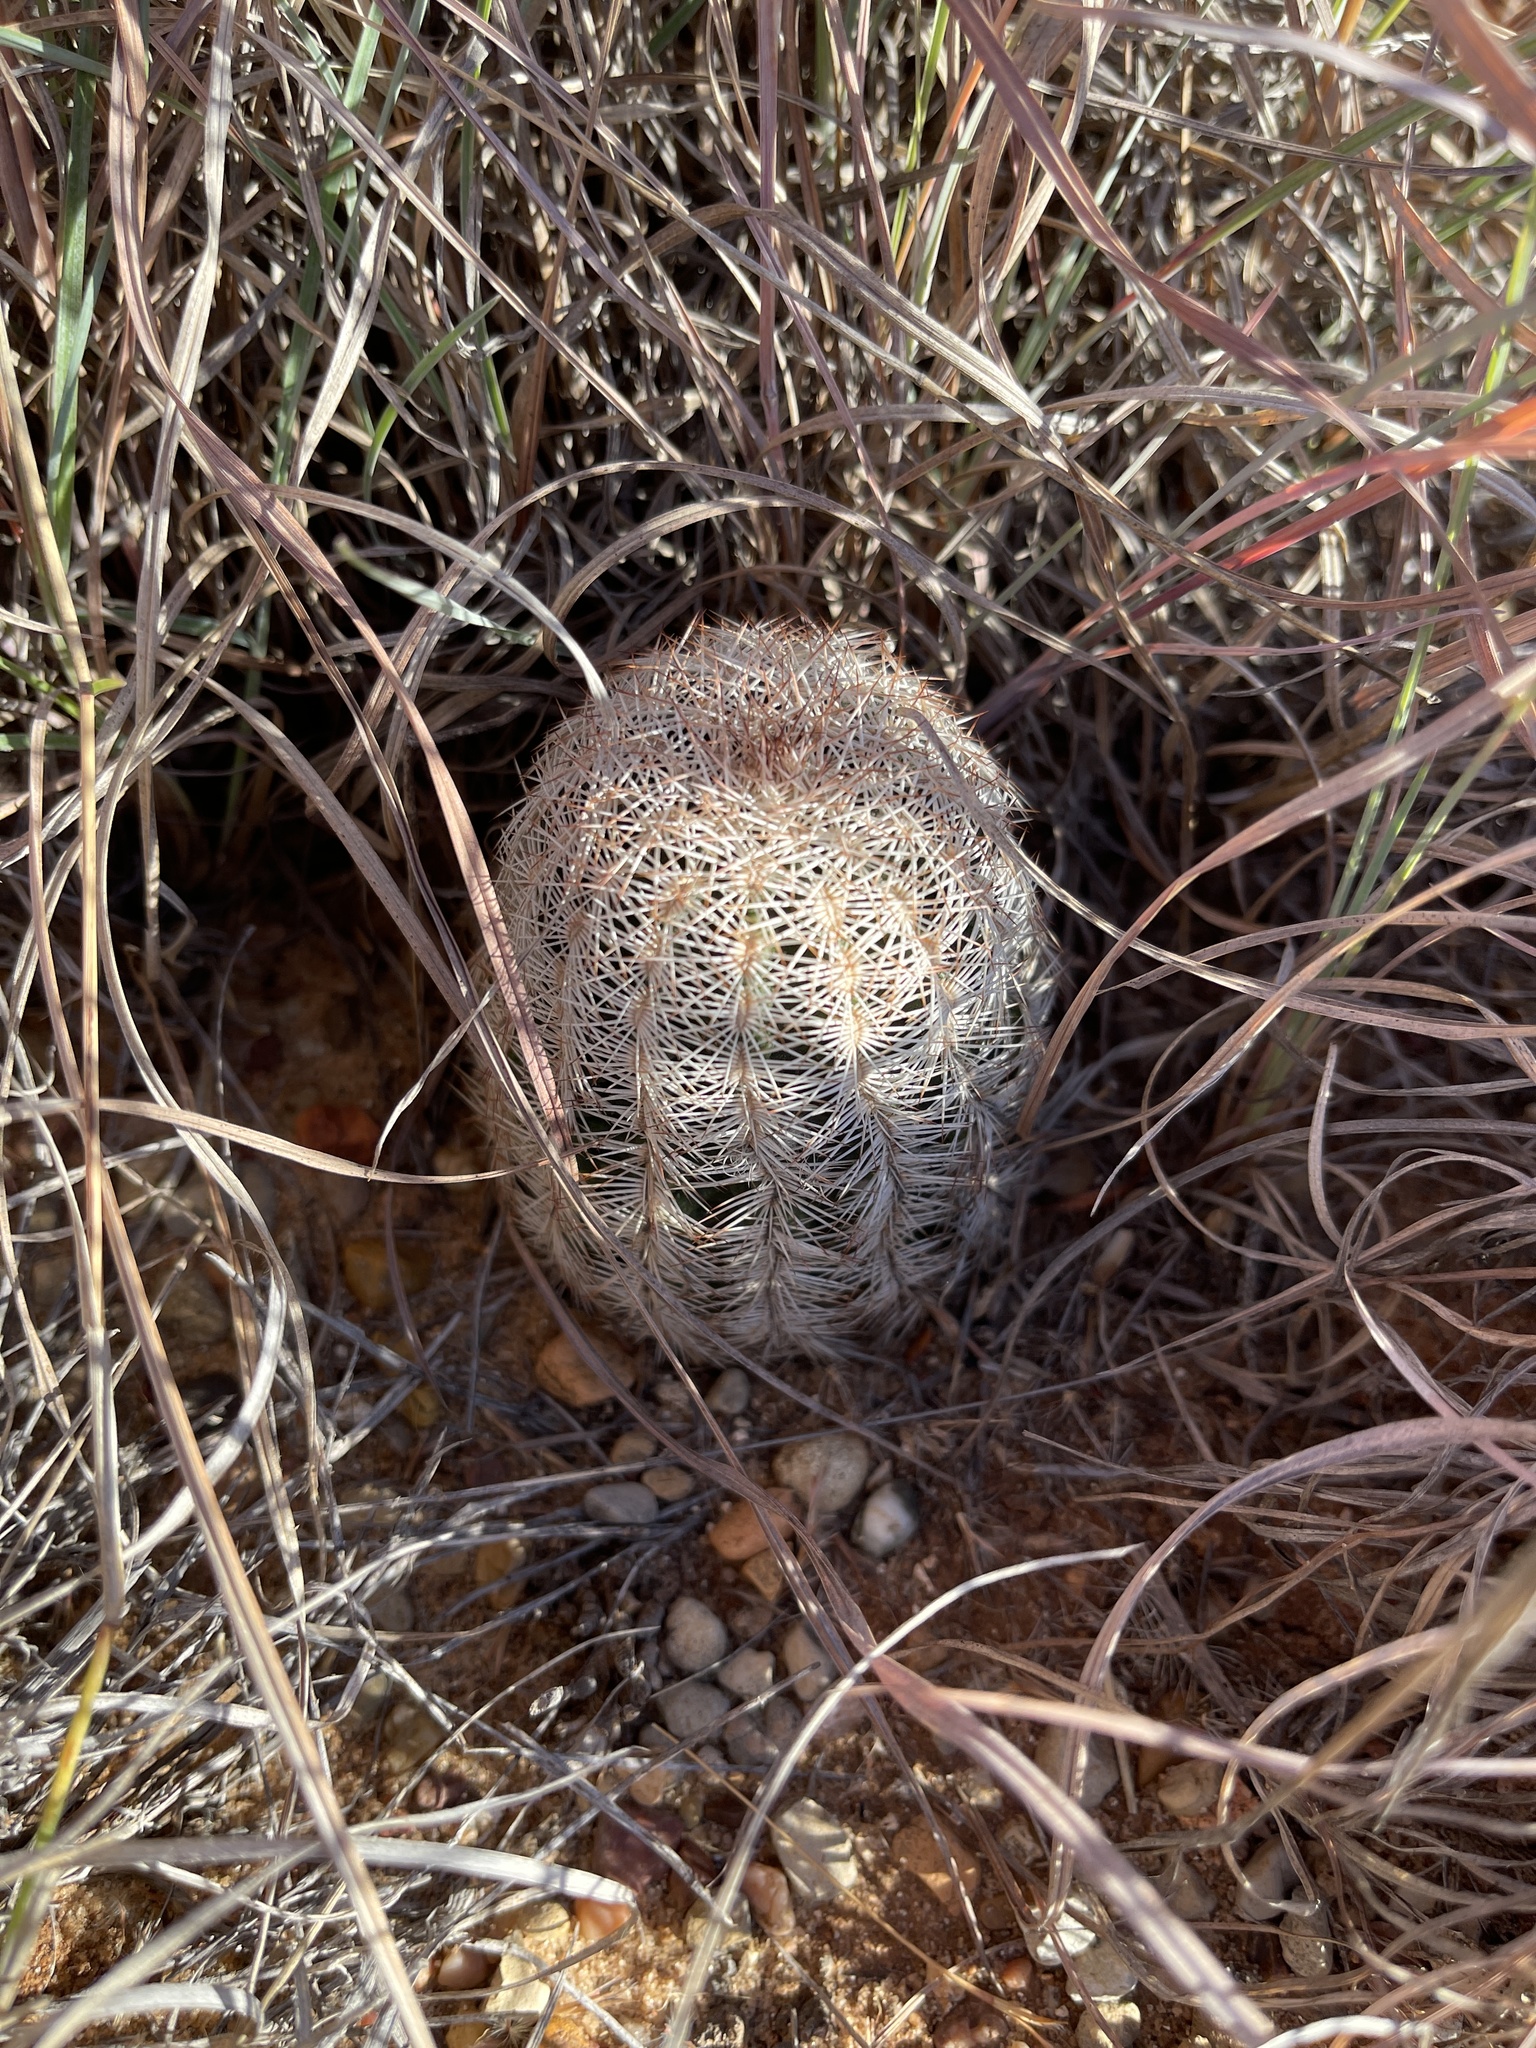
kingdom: Plantae
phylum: Tracheophyta
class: Magnoliopsida
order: Caryophyllales
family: Cactaceae
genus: Echinocereus
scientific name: Echinocereus reichenbachii
